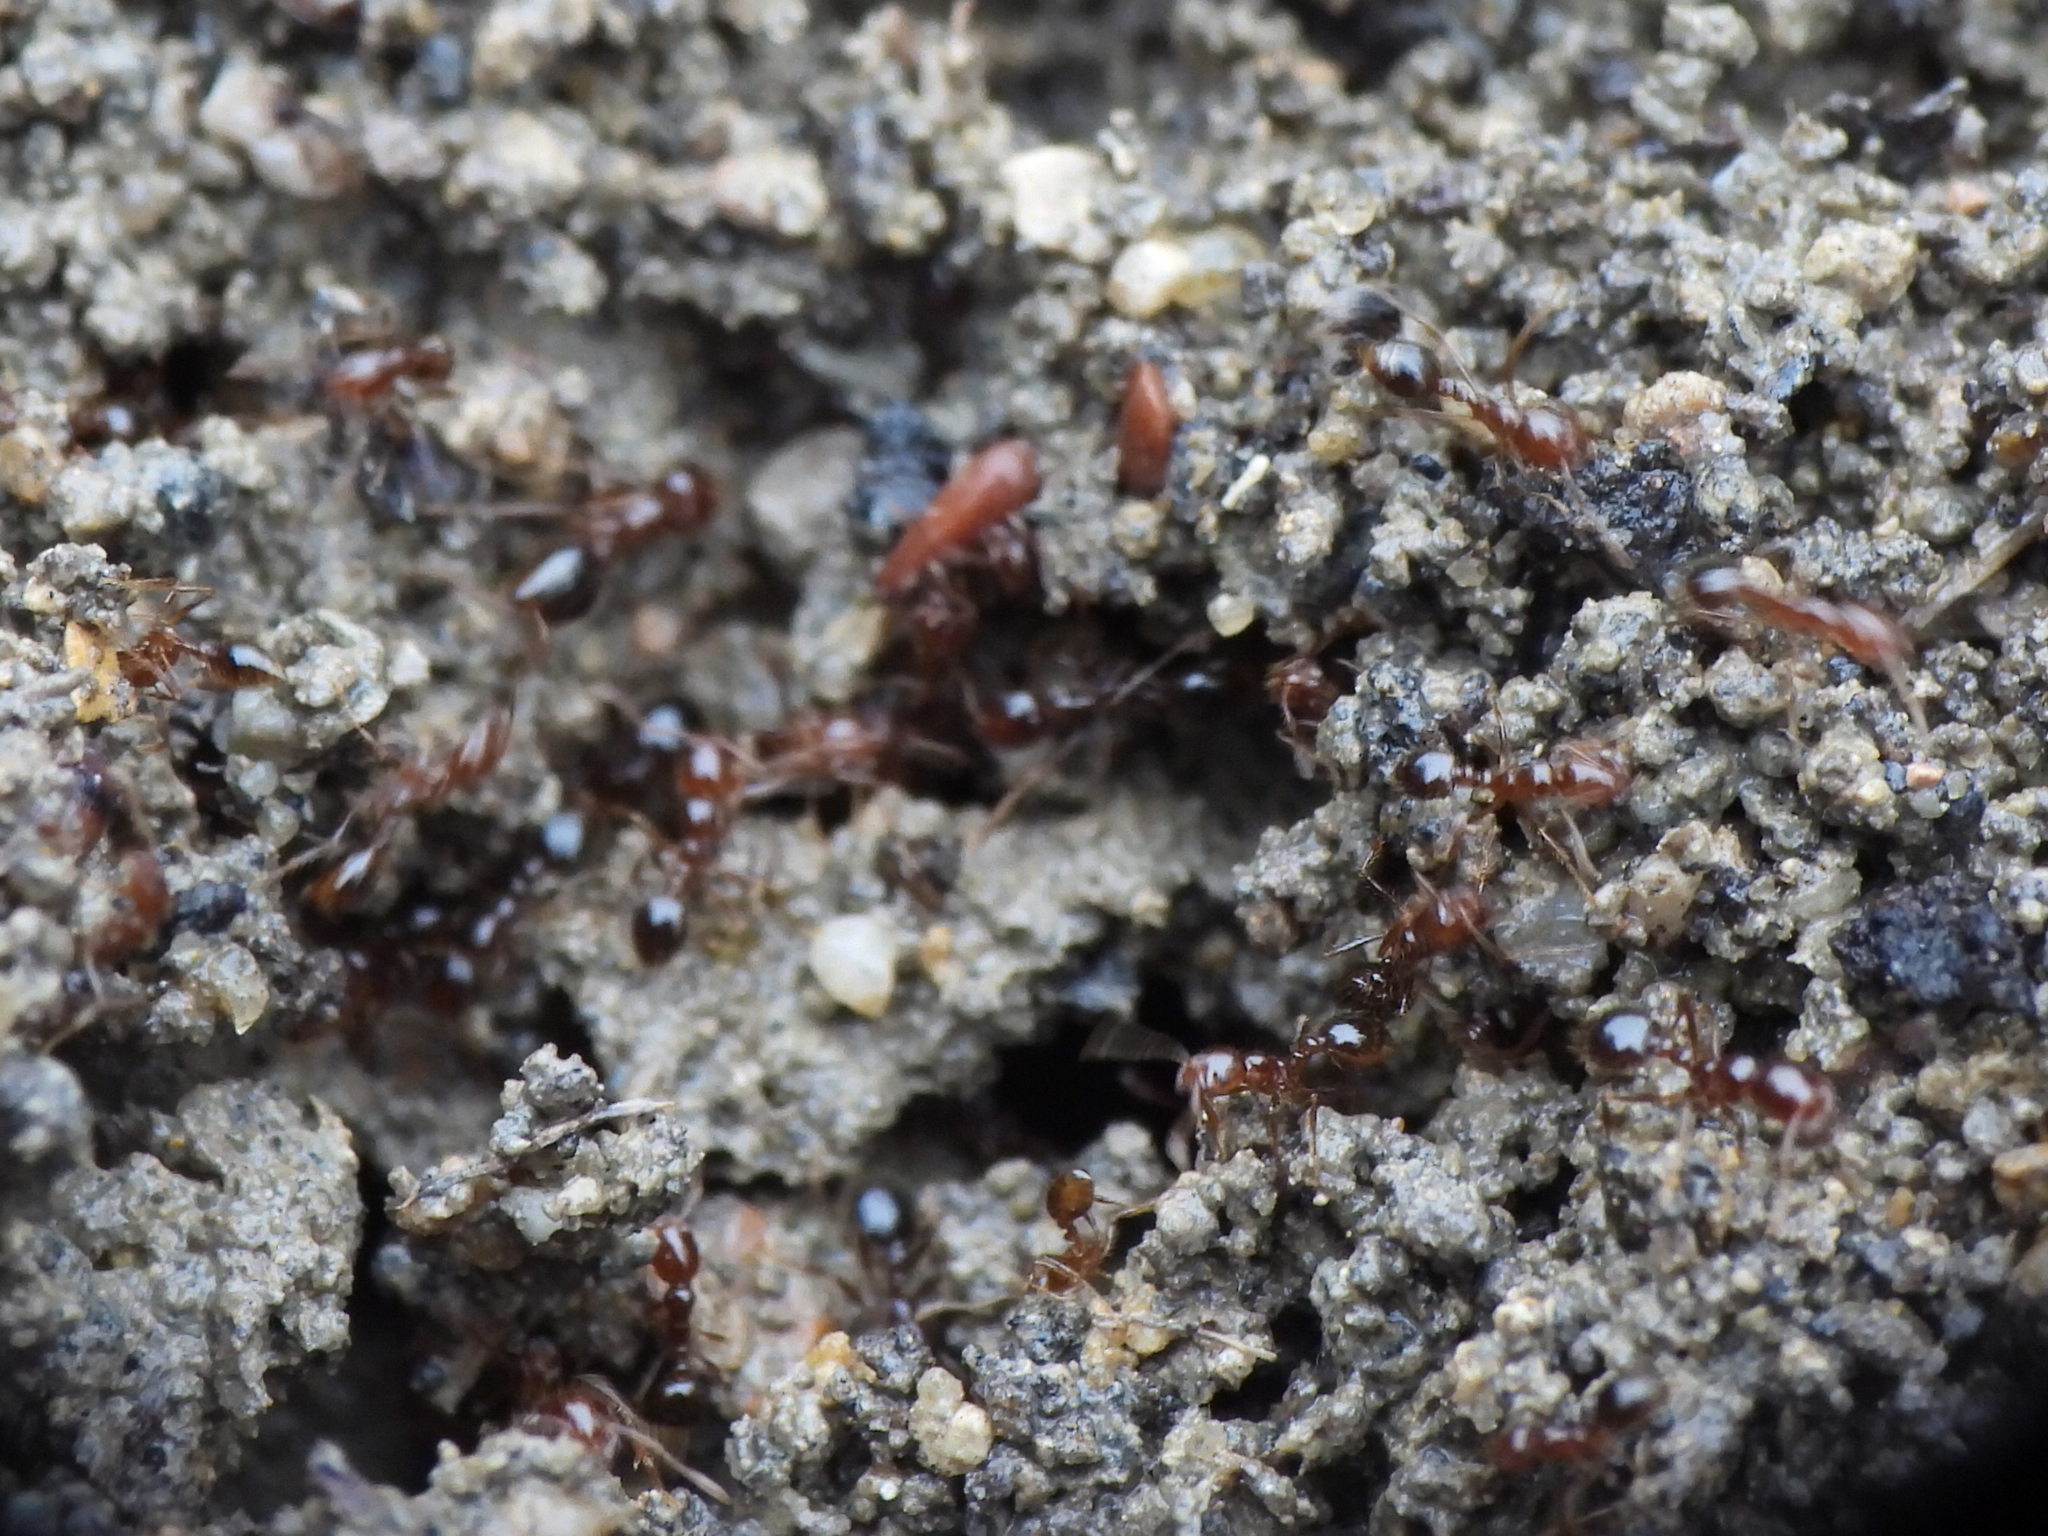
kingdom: Animalia
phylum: Arthropoda
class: Insecta
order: Hymenoptera
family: Formicidae
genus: Solenopsis
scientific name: Solenopsis invicta
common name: Red imported fire ant
